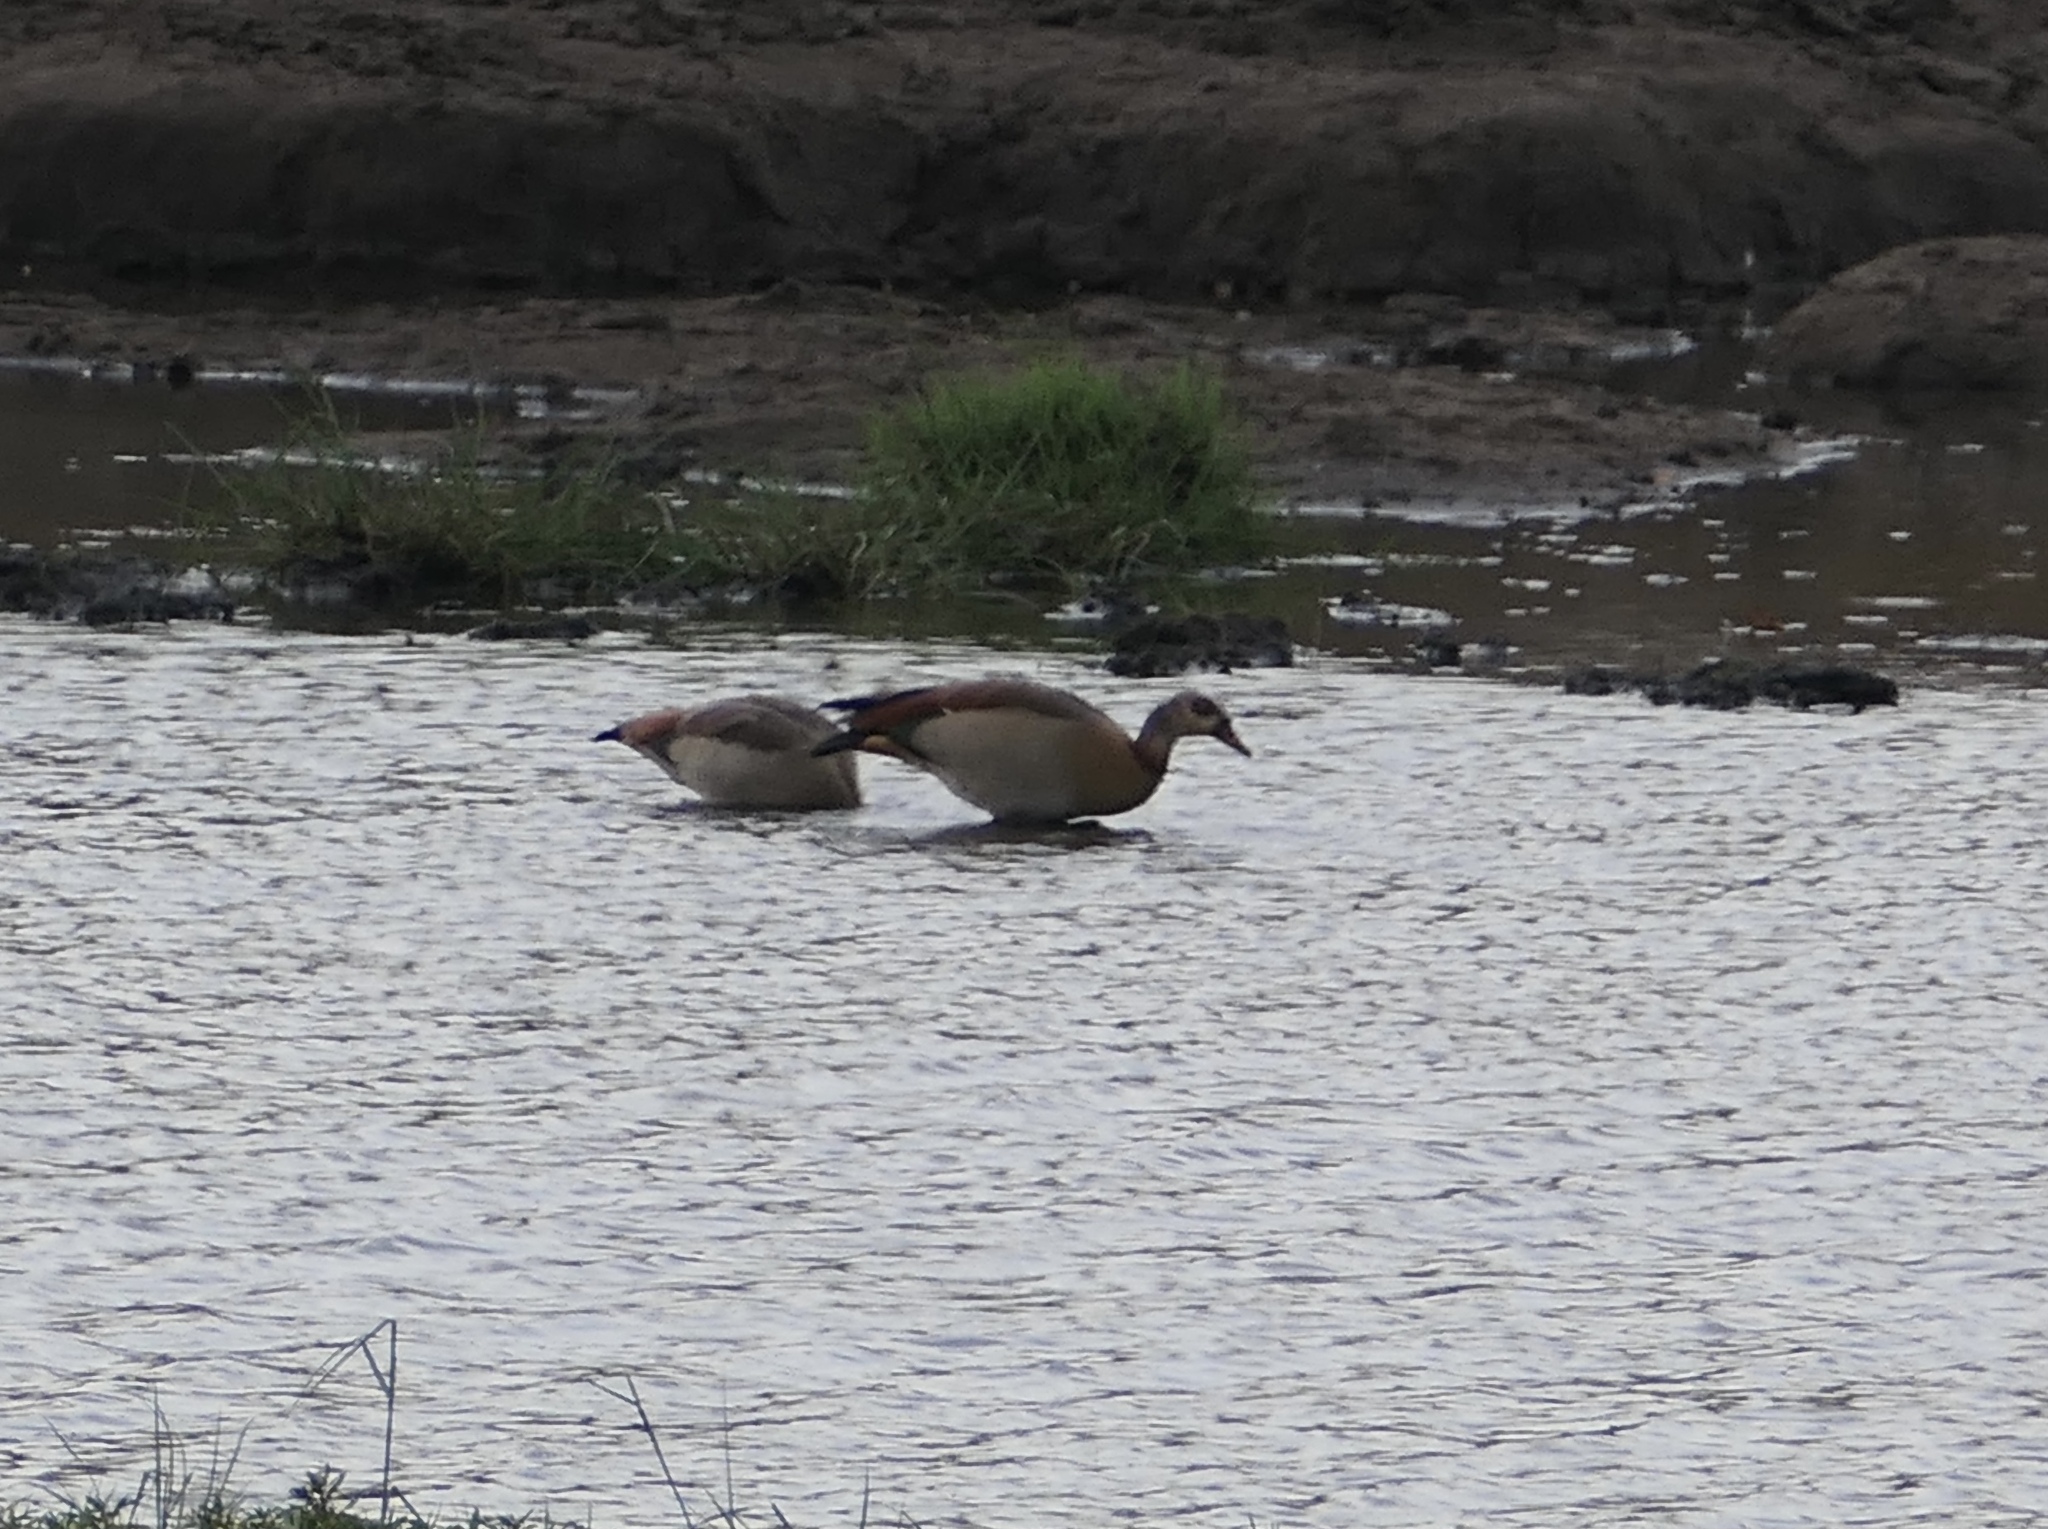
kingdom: Animalia
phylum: Chordata
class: Aves
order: Anseriformes
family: Anatidae
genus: Alopochen
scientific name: Alopochen aegyptiaca
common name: Egyptian goose
